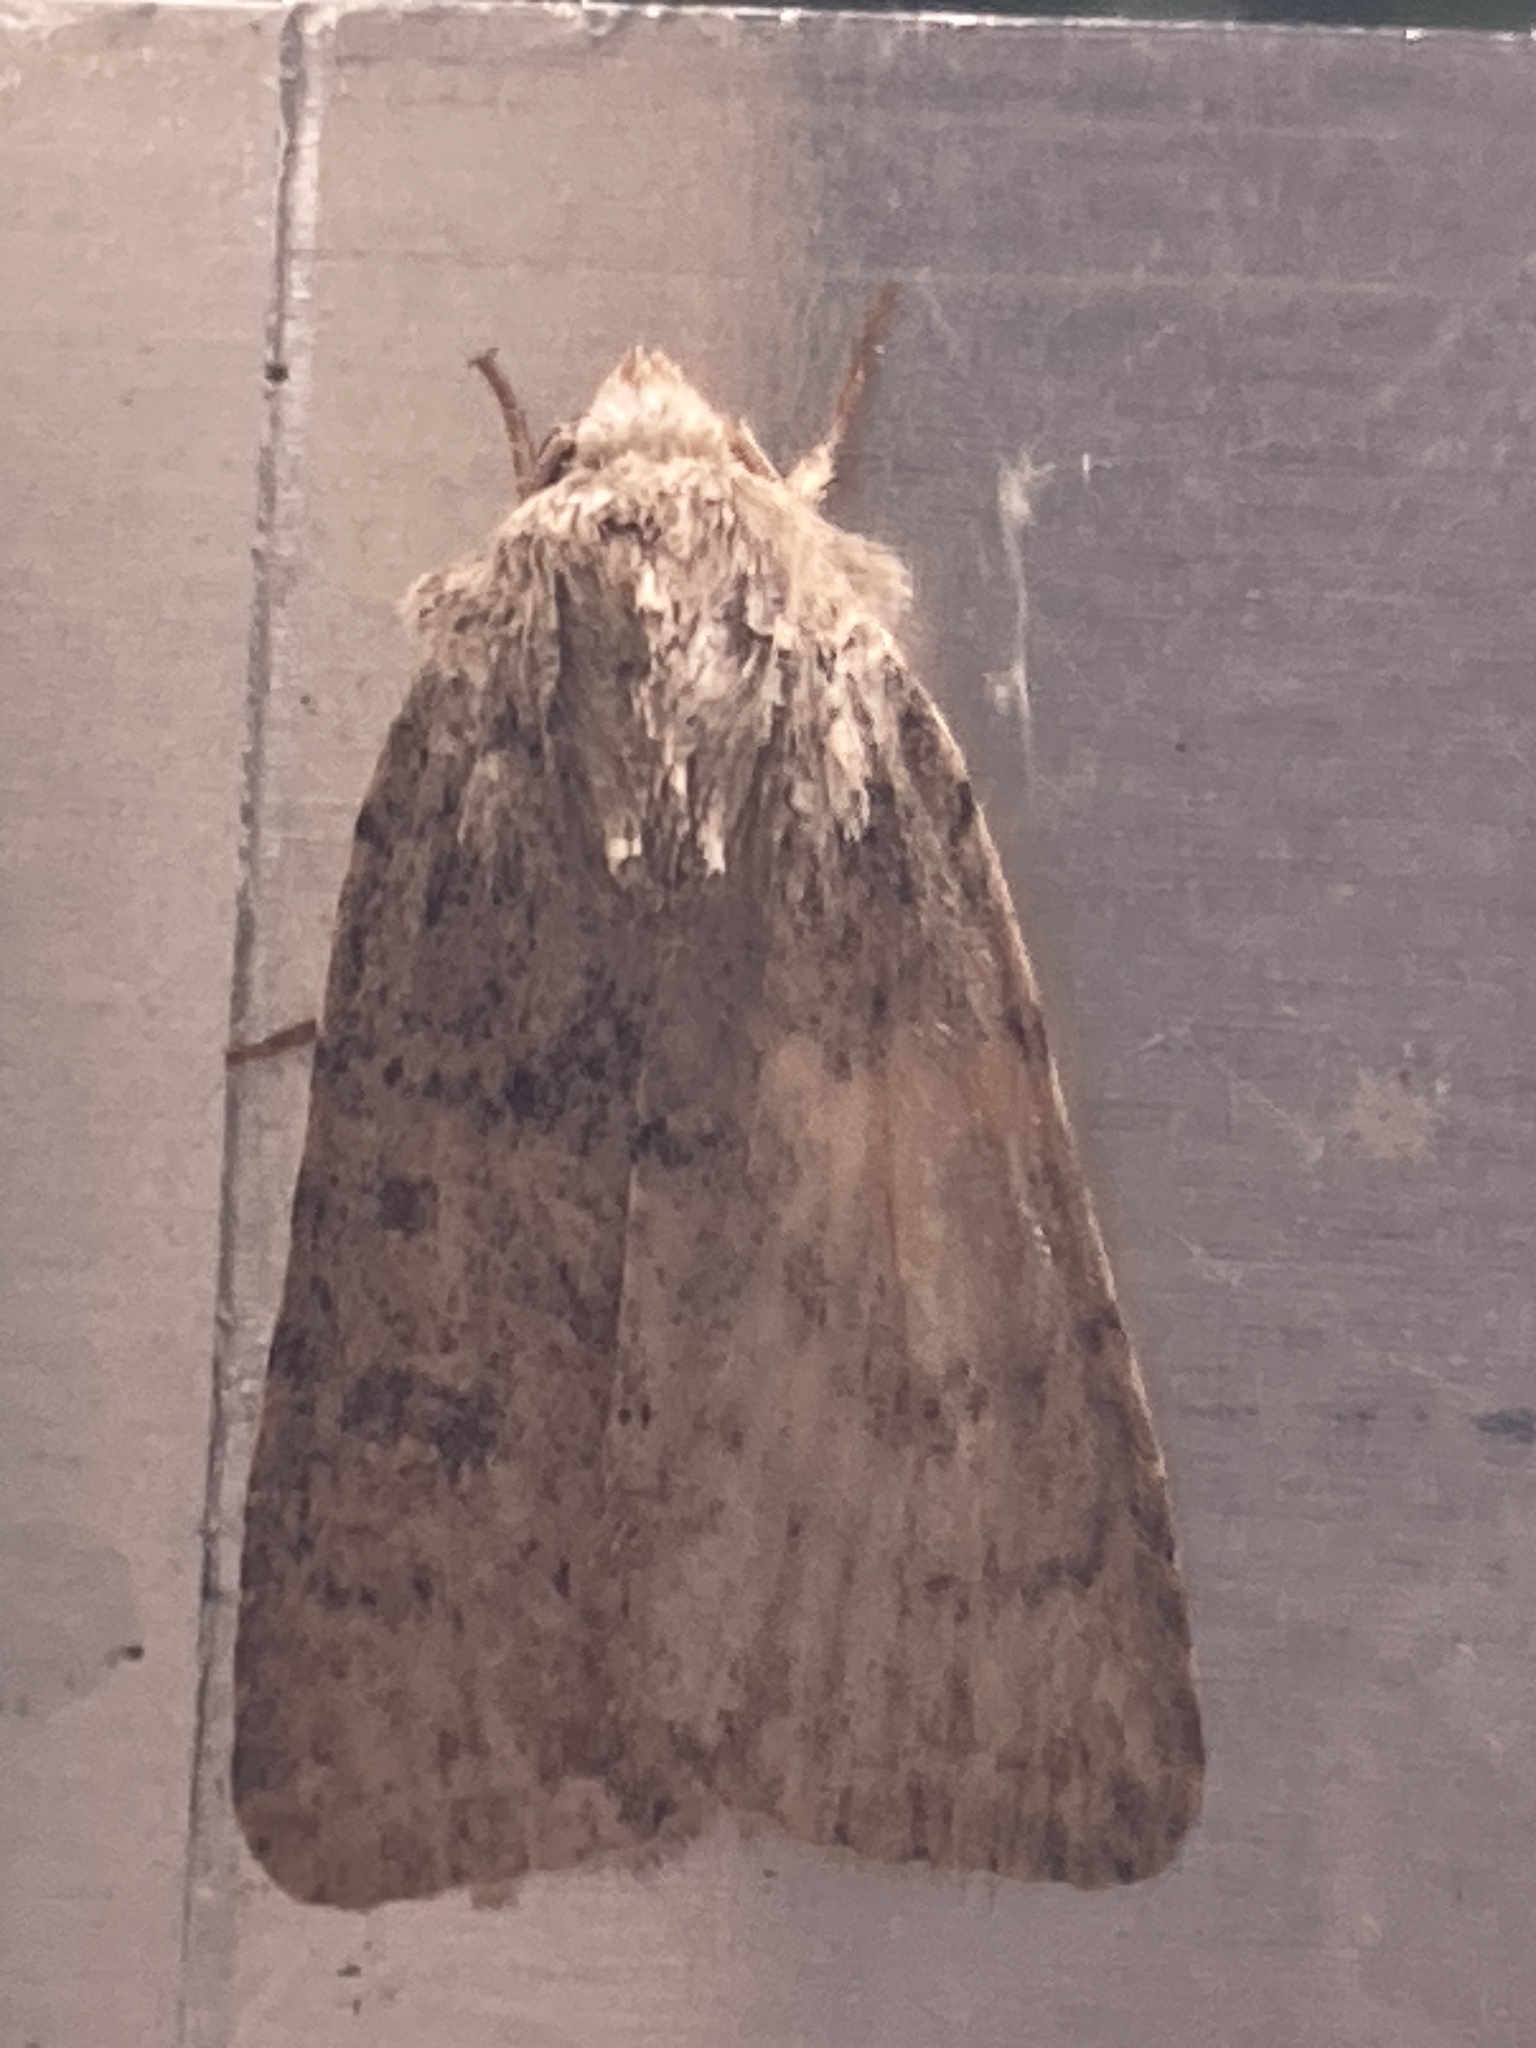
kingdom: Animalia
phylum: Arthropoda
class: Insecta
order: Lepidoptera
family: Noctuidae
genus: Caradrina
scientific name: Caradrina clavipalpis
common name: Pale mottled willow
